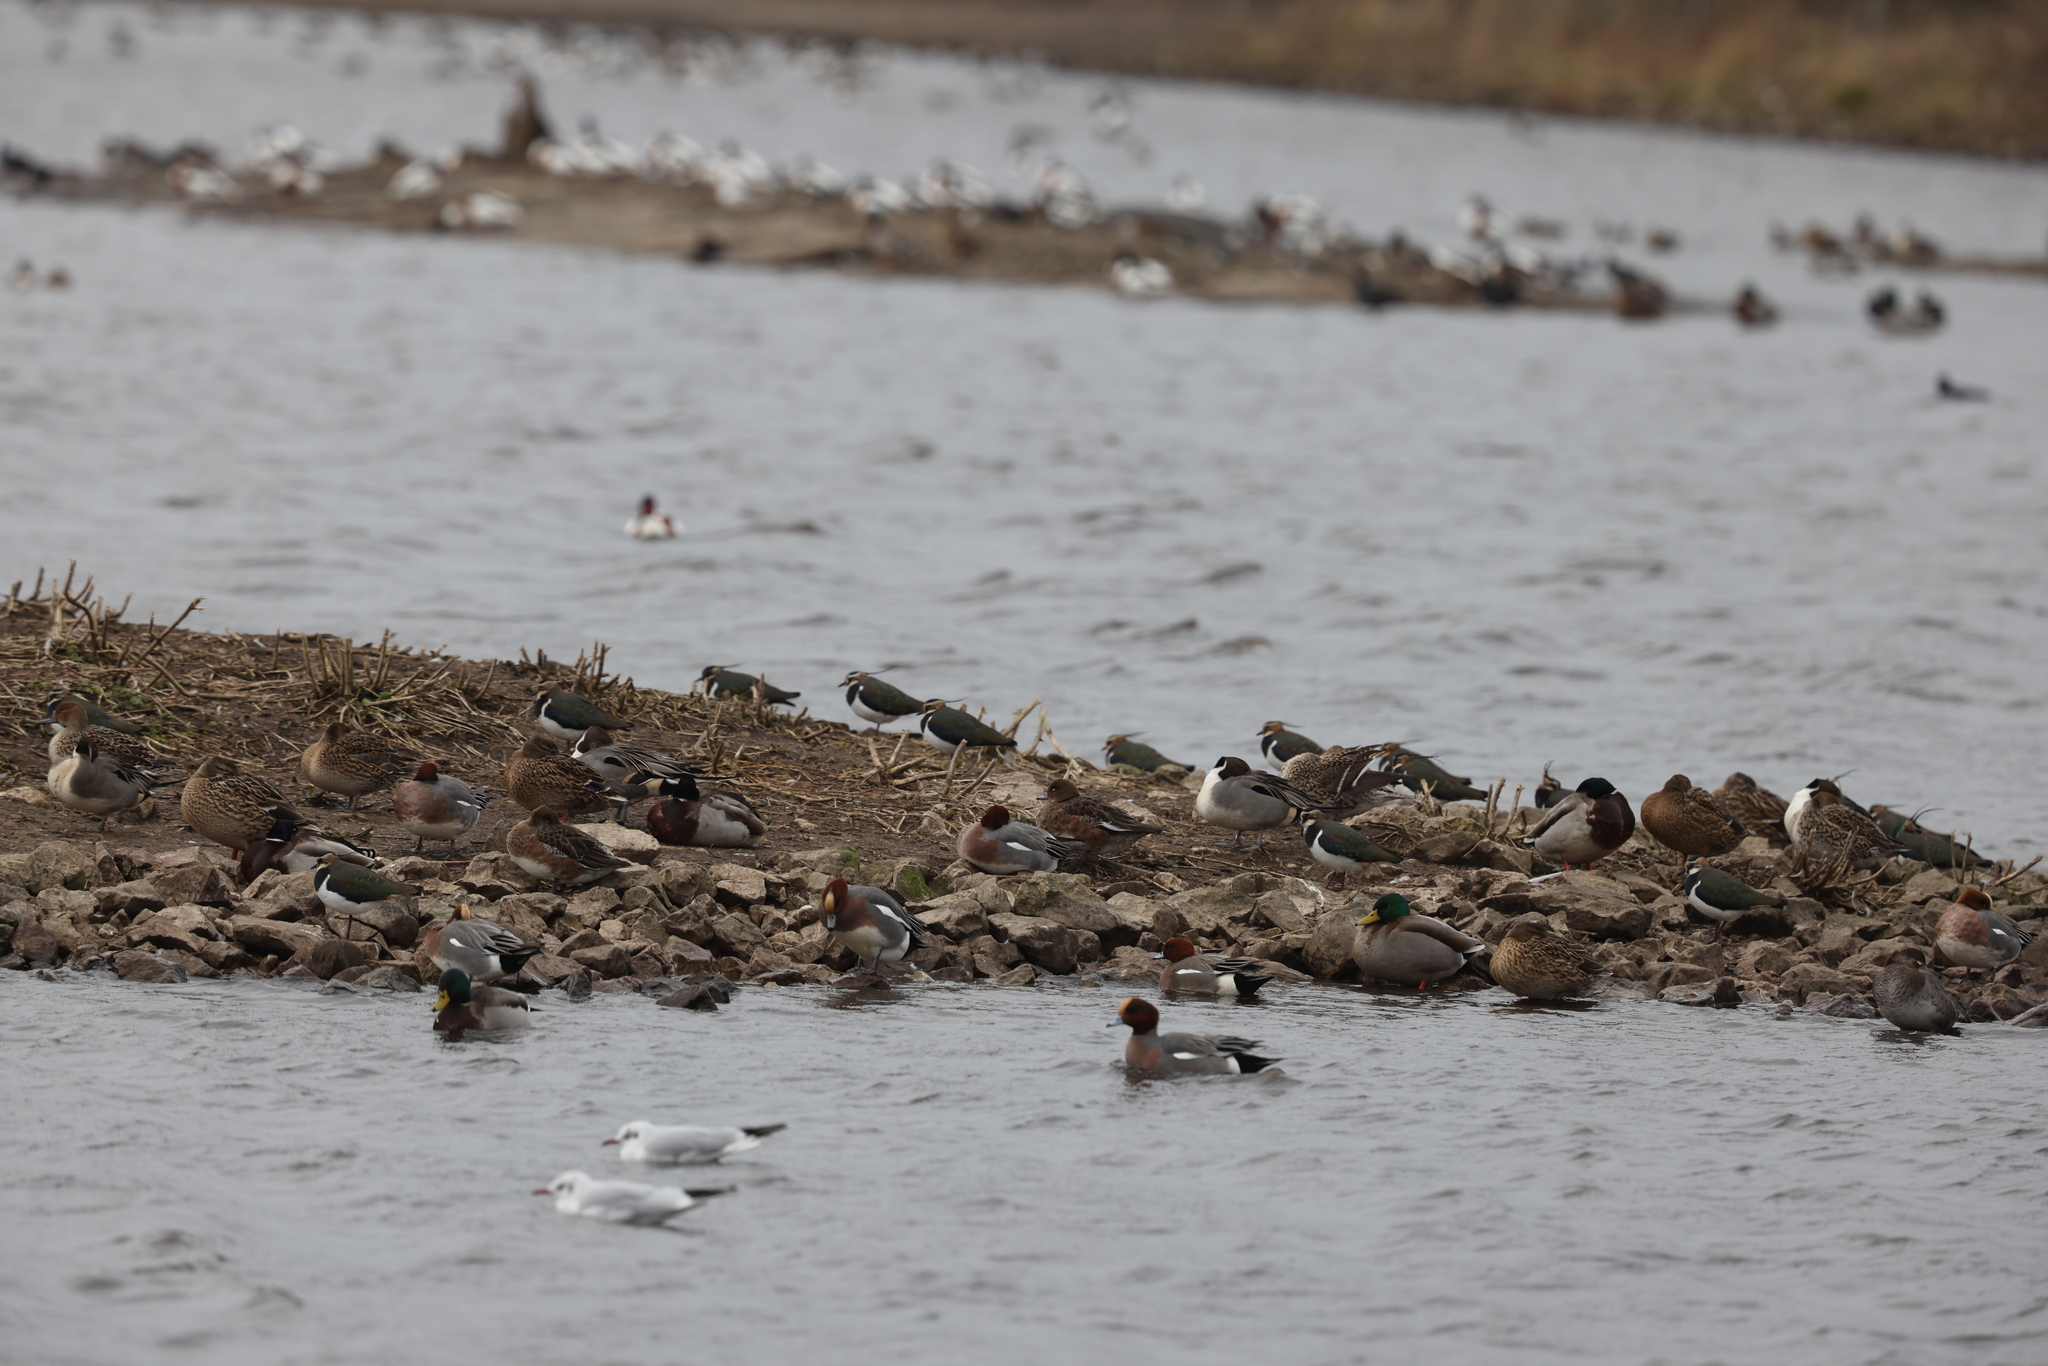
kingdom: Animalia
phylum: Chordata
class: Aves
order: Charadriiformes
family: Charadriidae
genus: Vanellus
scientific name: Vanellus vanellus
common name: Northern lapwing
